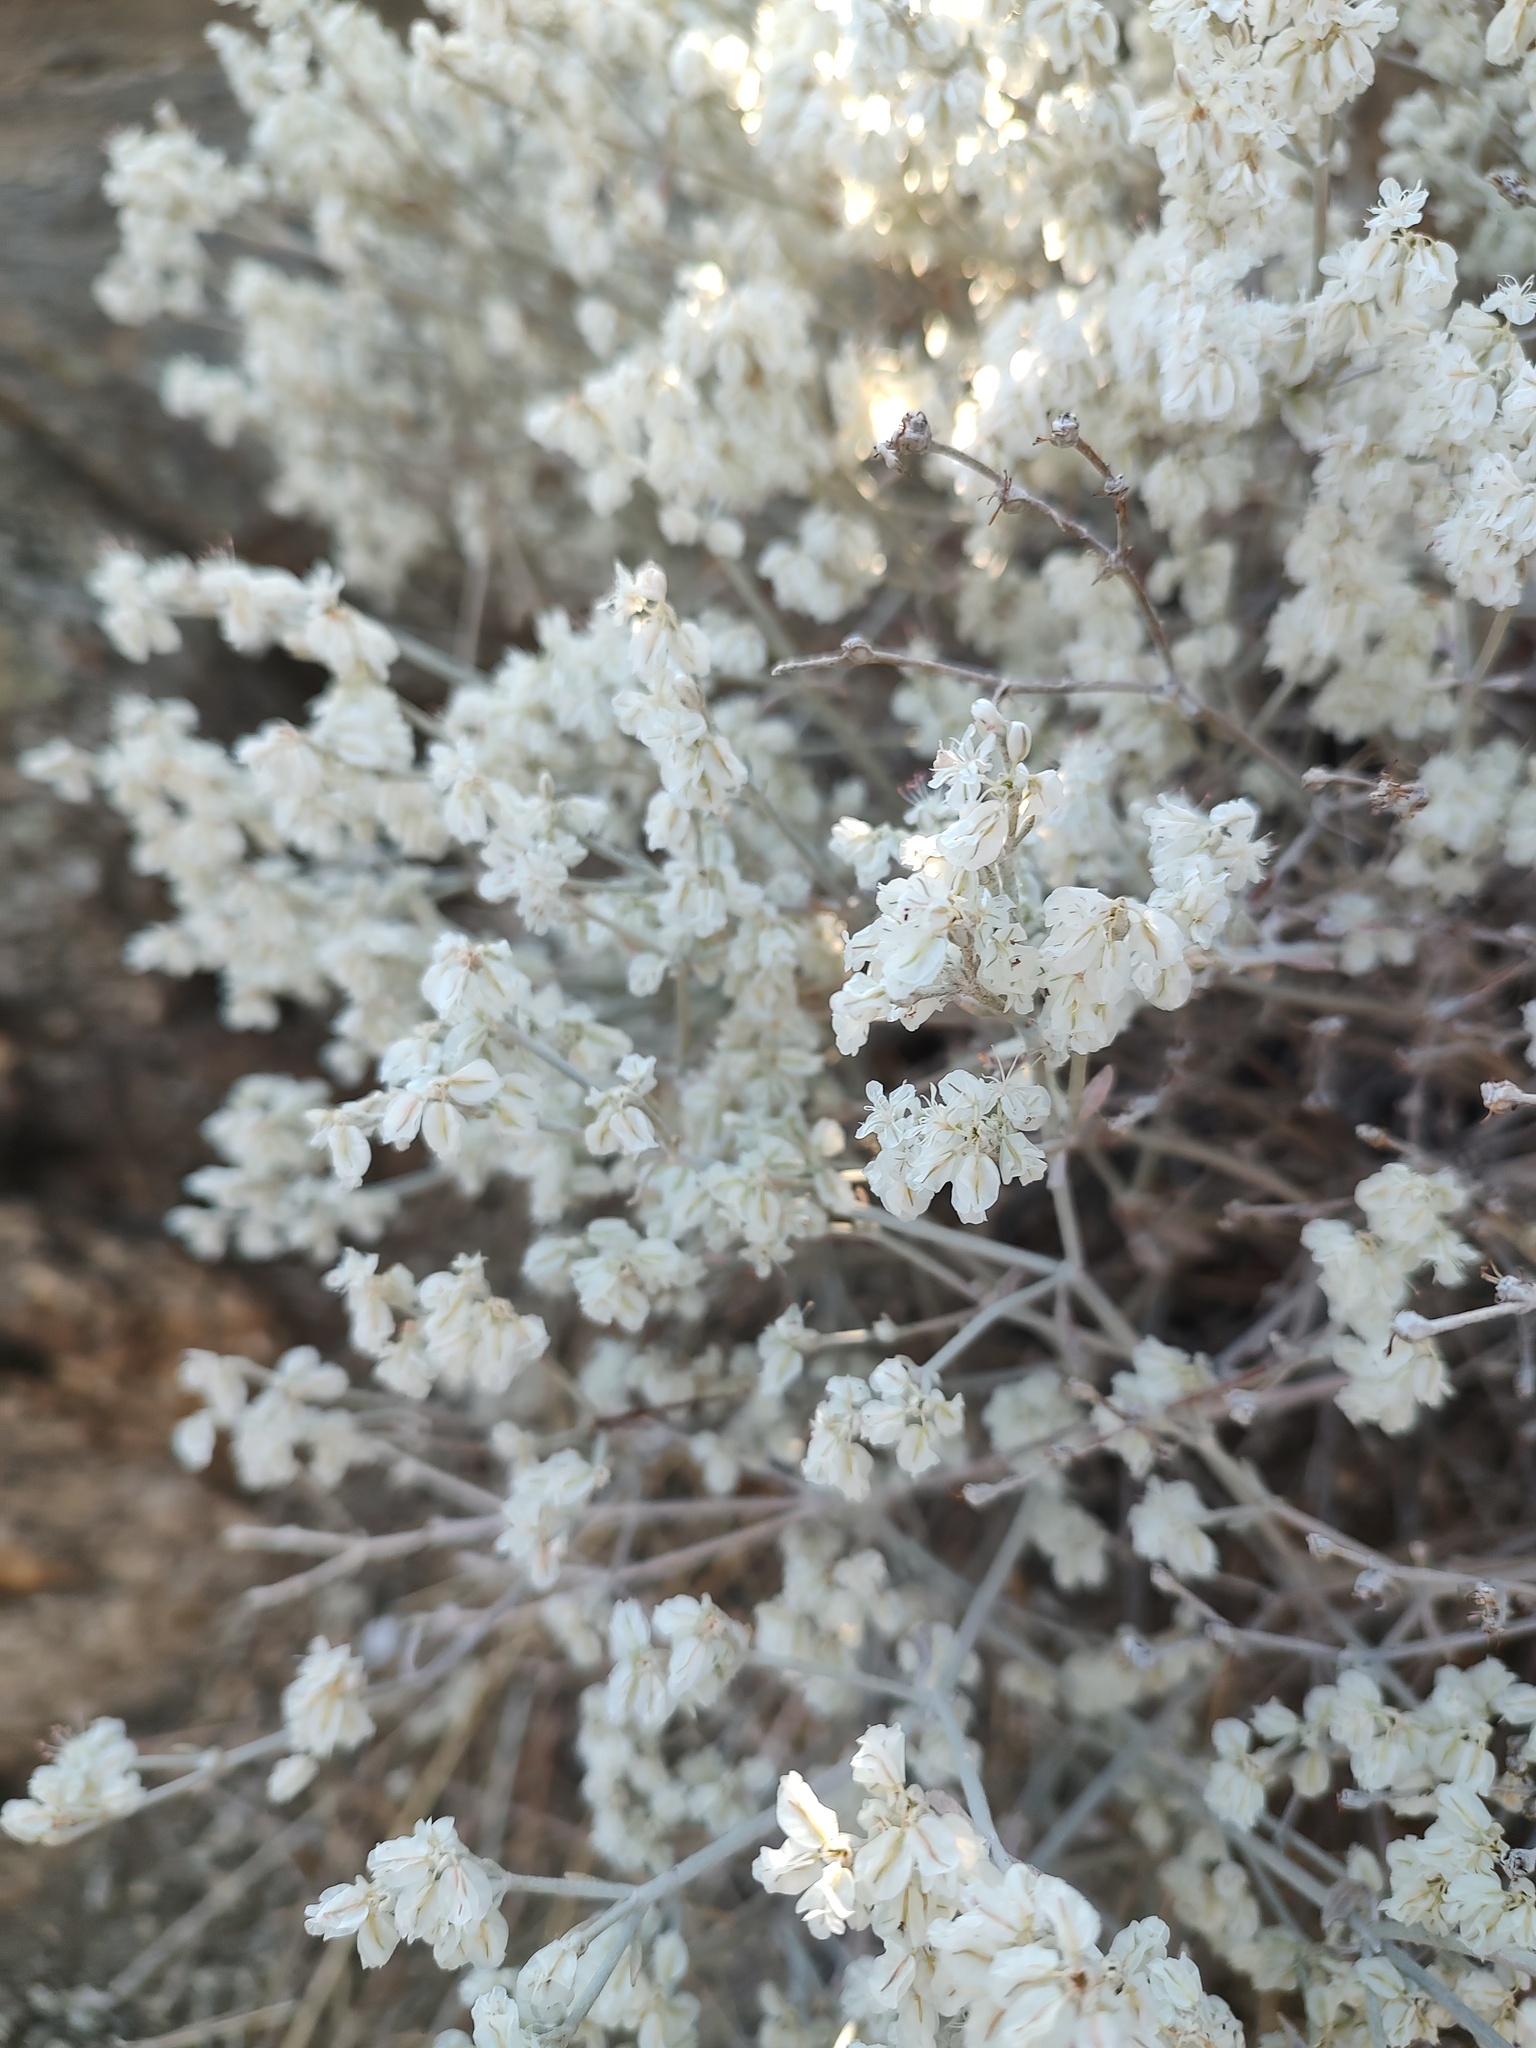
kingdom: Plantae
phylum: Tracheophyta
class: Magnoliopsida
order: Caryophyllales
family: Polygonaceae
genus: Eriogonum
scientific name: Eriogonum niveum
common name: Snow wild buckwheat
